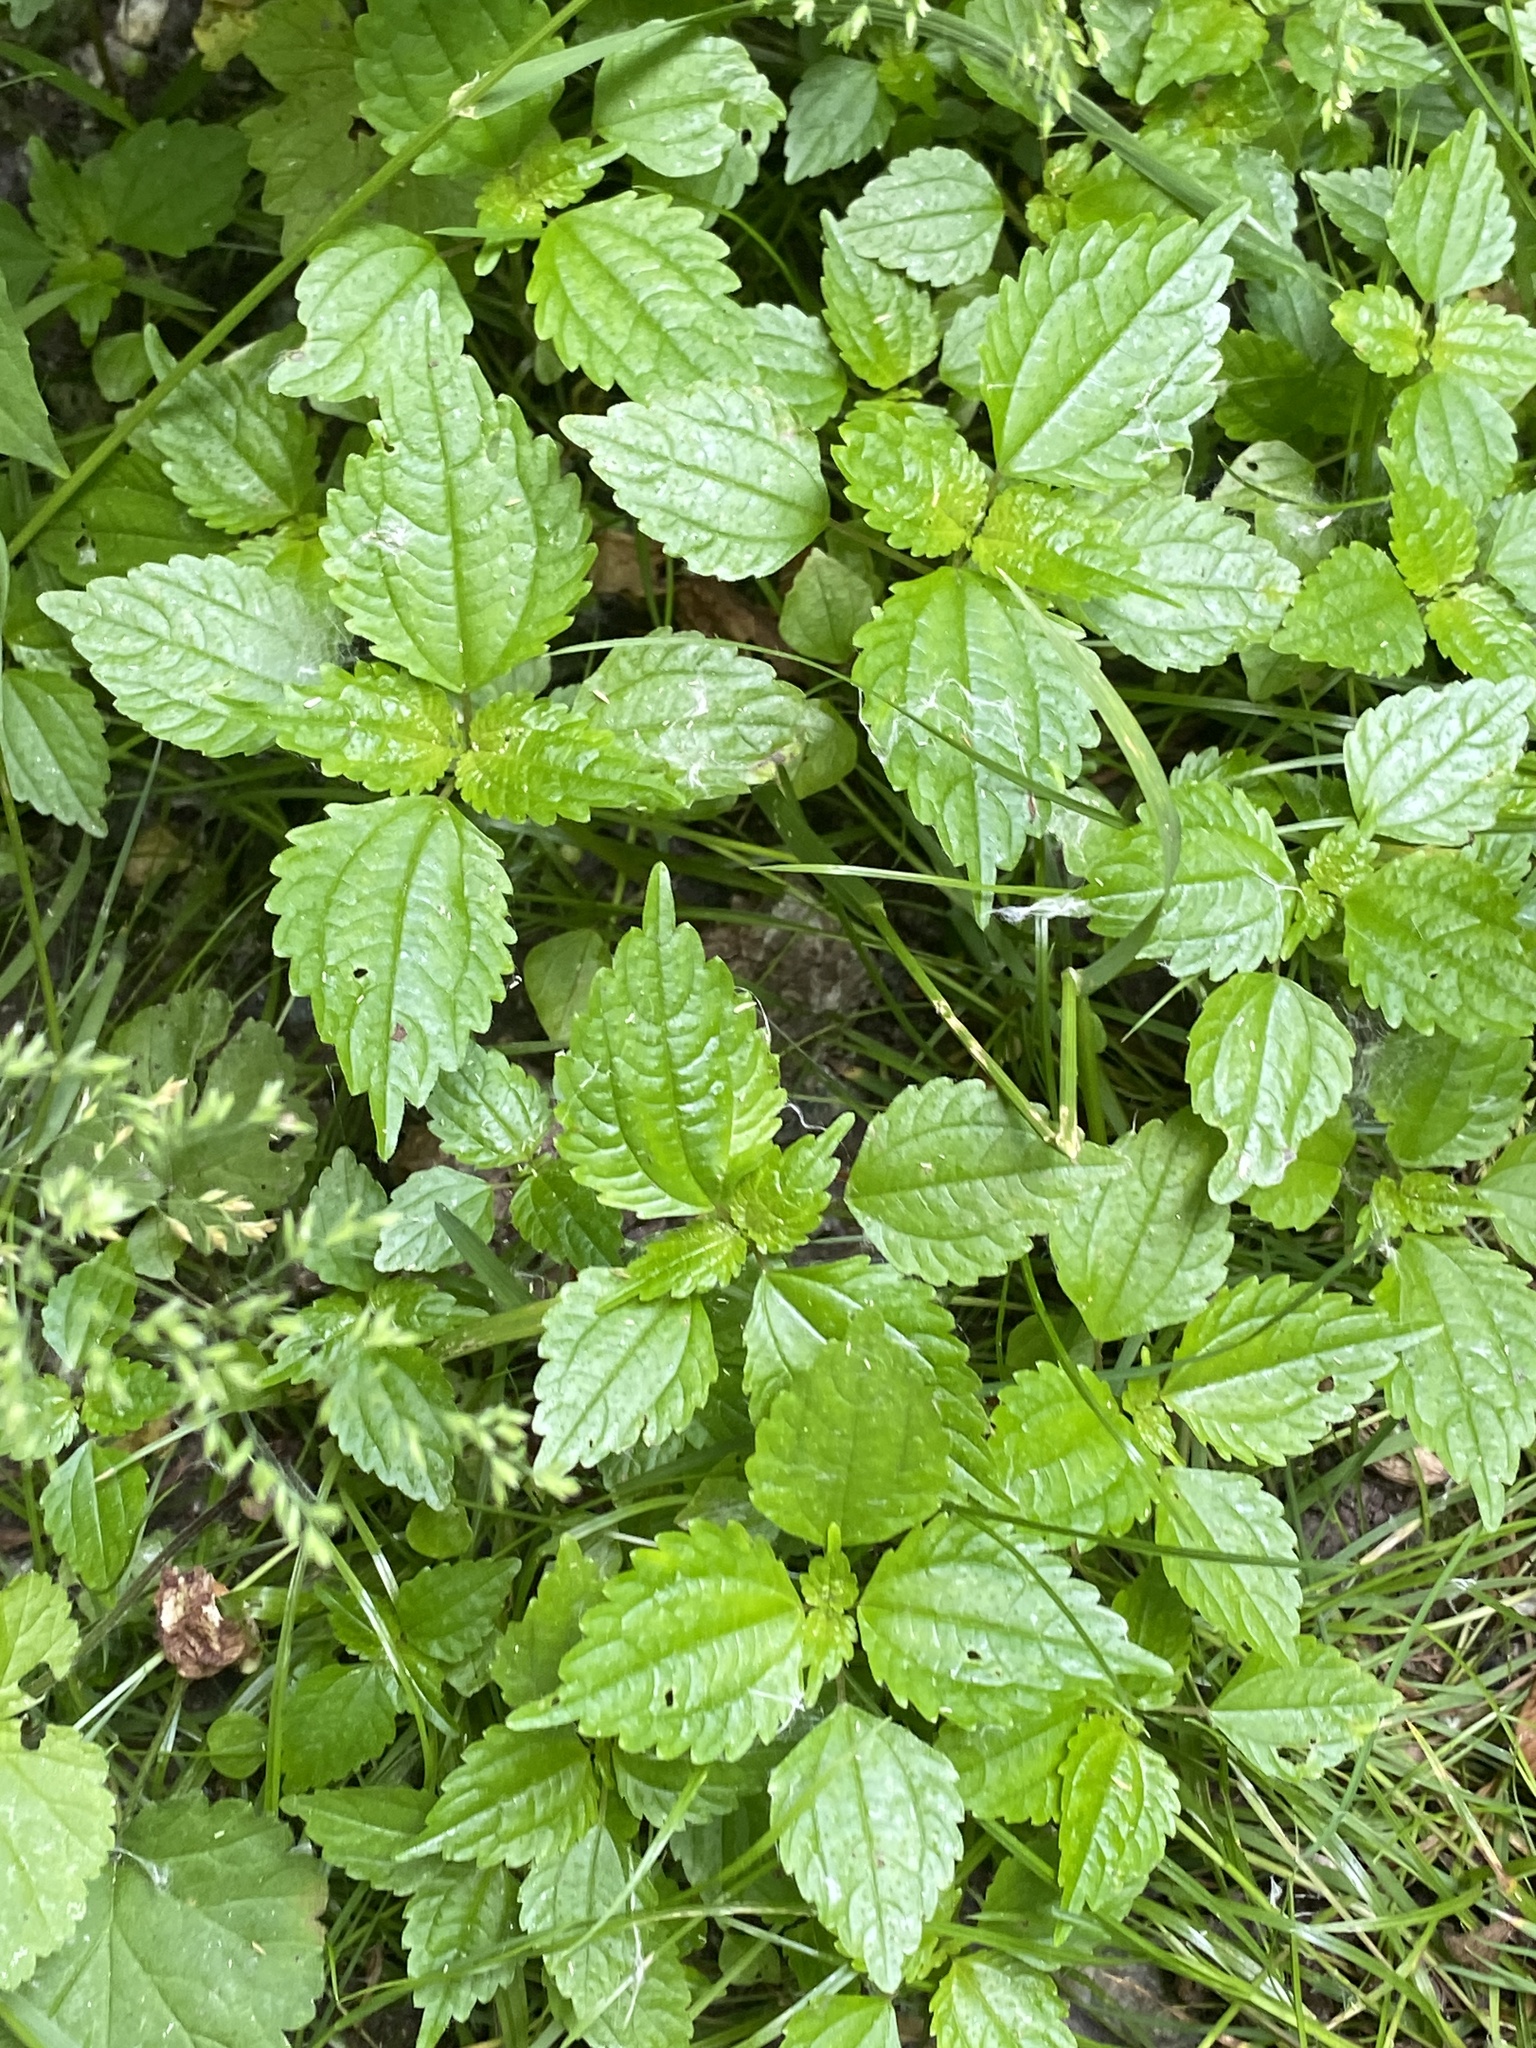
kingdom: Plantae
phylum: Tracheophyta
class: Magnoliopsida
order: Rosales
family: Urticaceae
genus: Pilea
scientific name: Pilea pumila
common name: Clearweed
